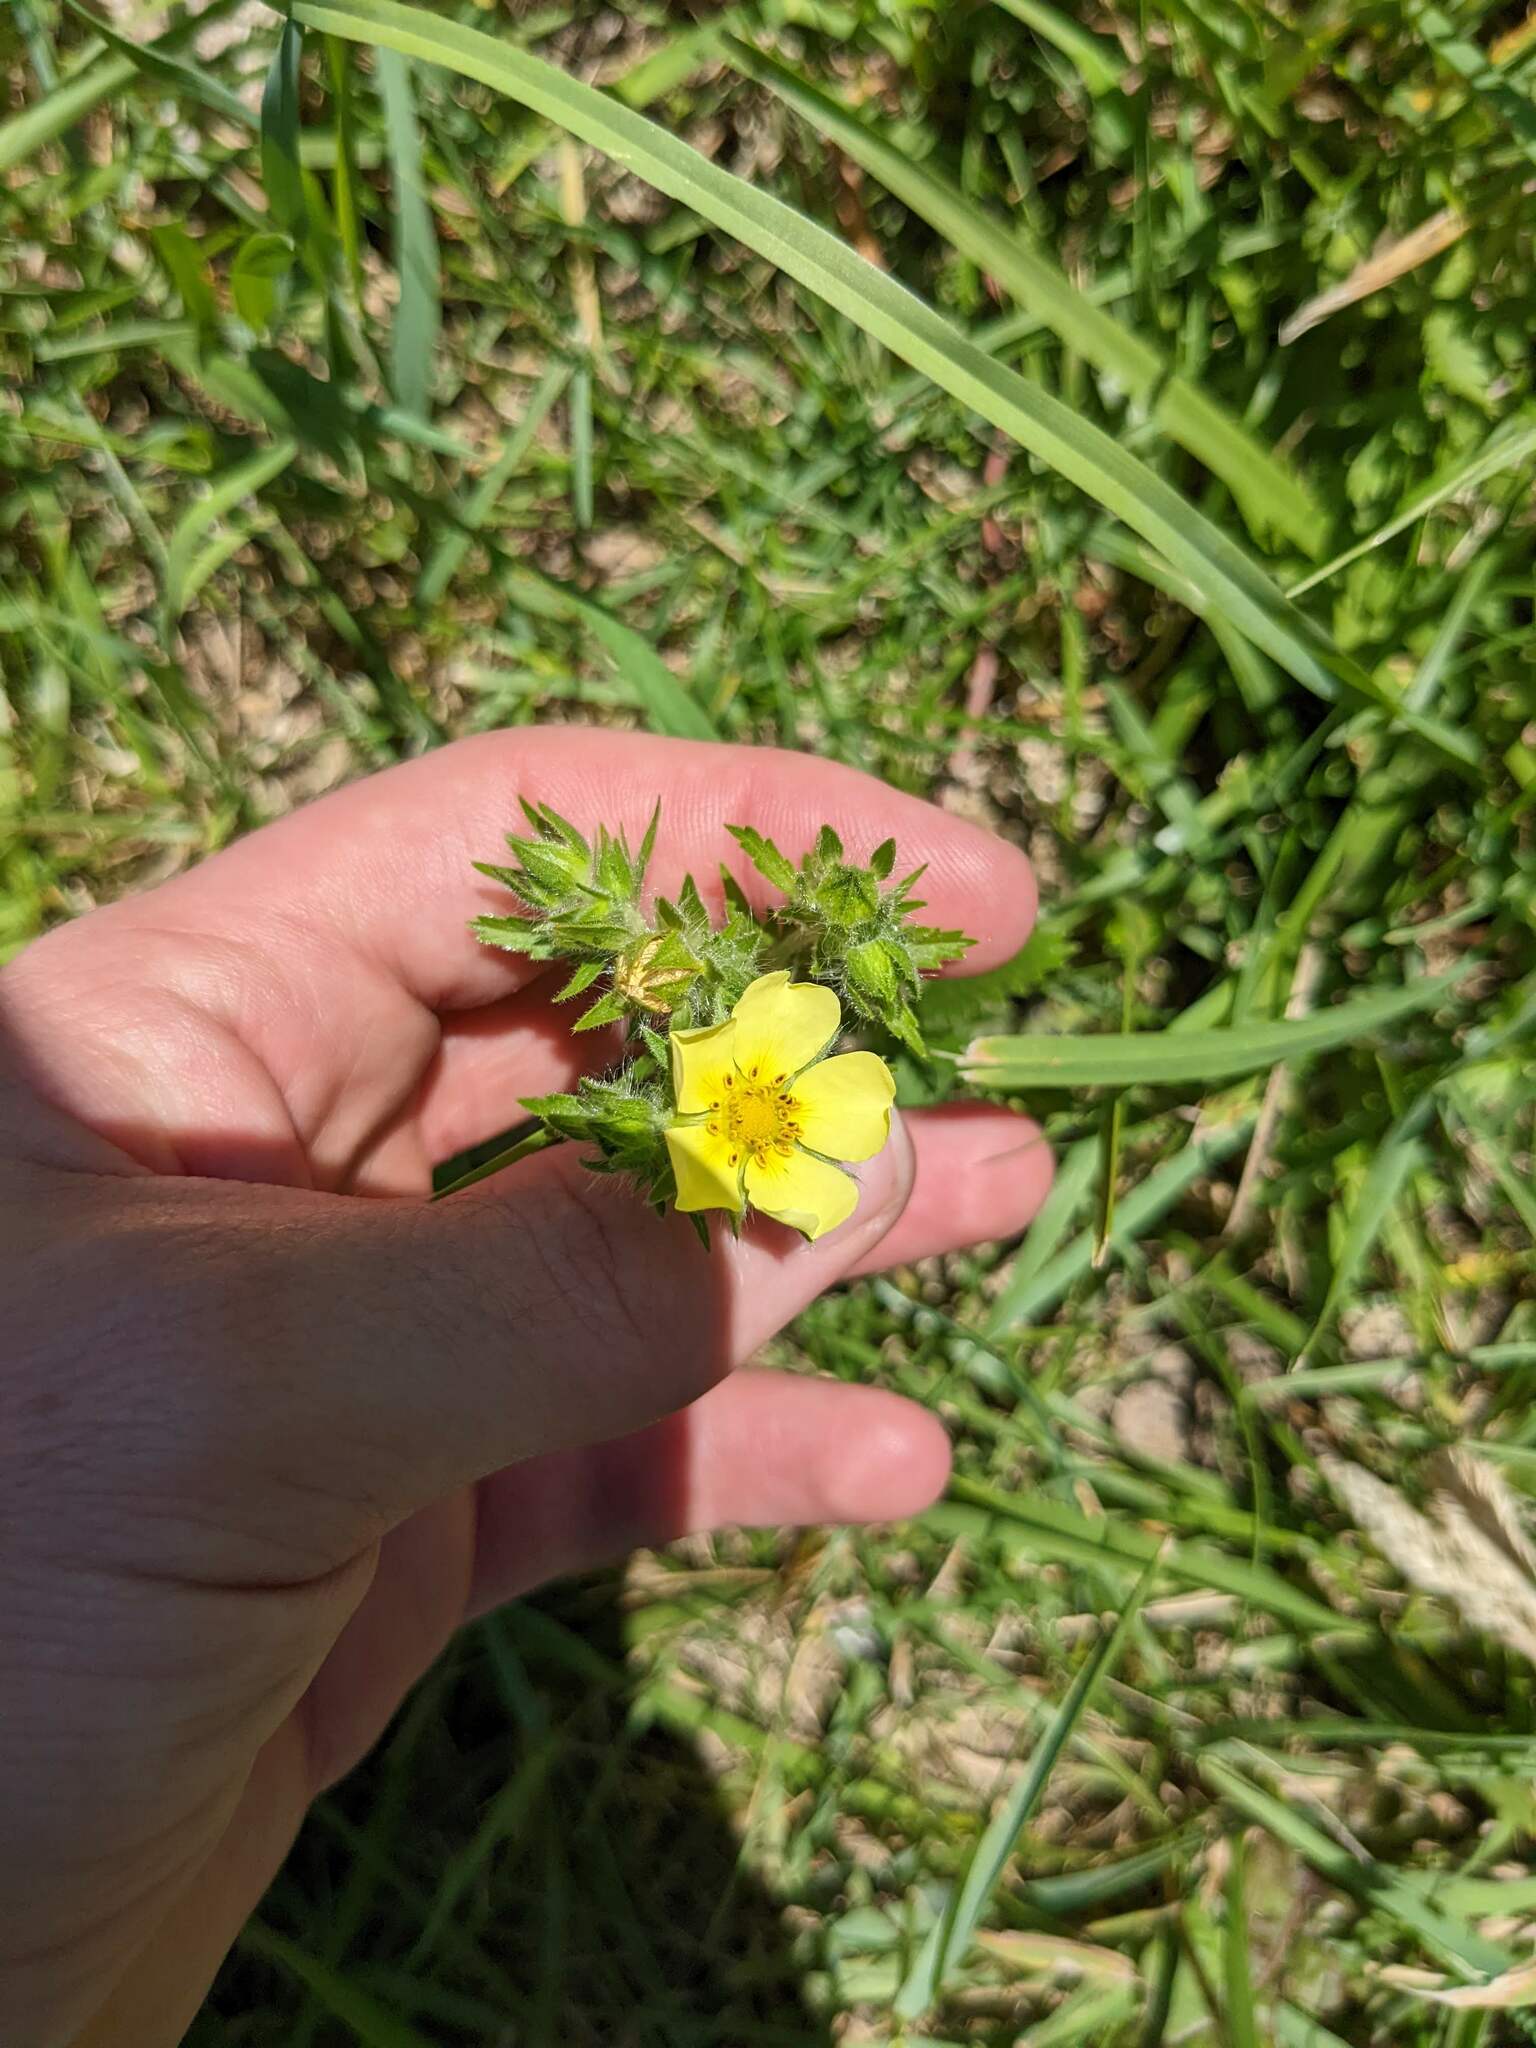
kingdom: Plantae
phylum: Tracheophyta
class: Magnoliopsida
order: Rosales
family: Rosaceae
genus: Potentilla
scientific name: Potentilla recta
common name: Sulphur cinquefoil
